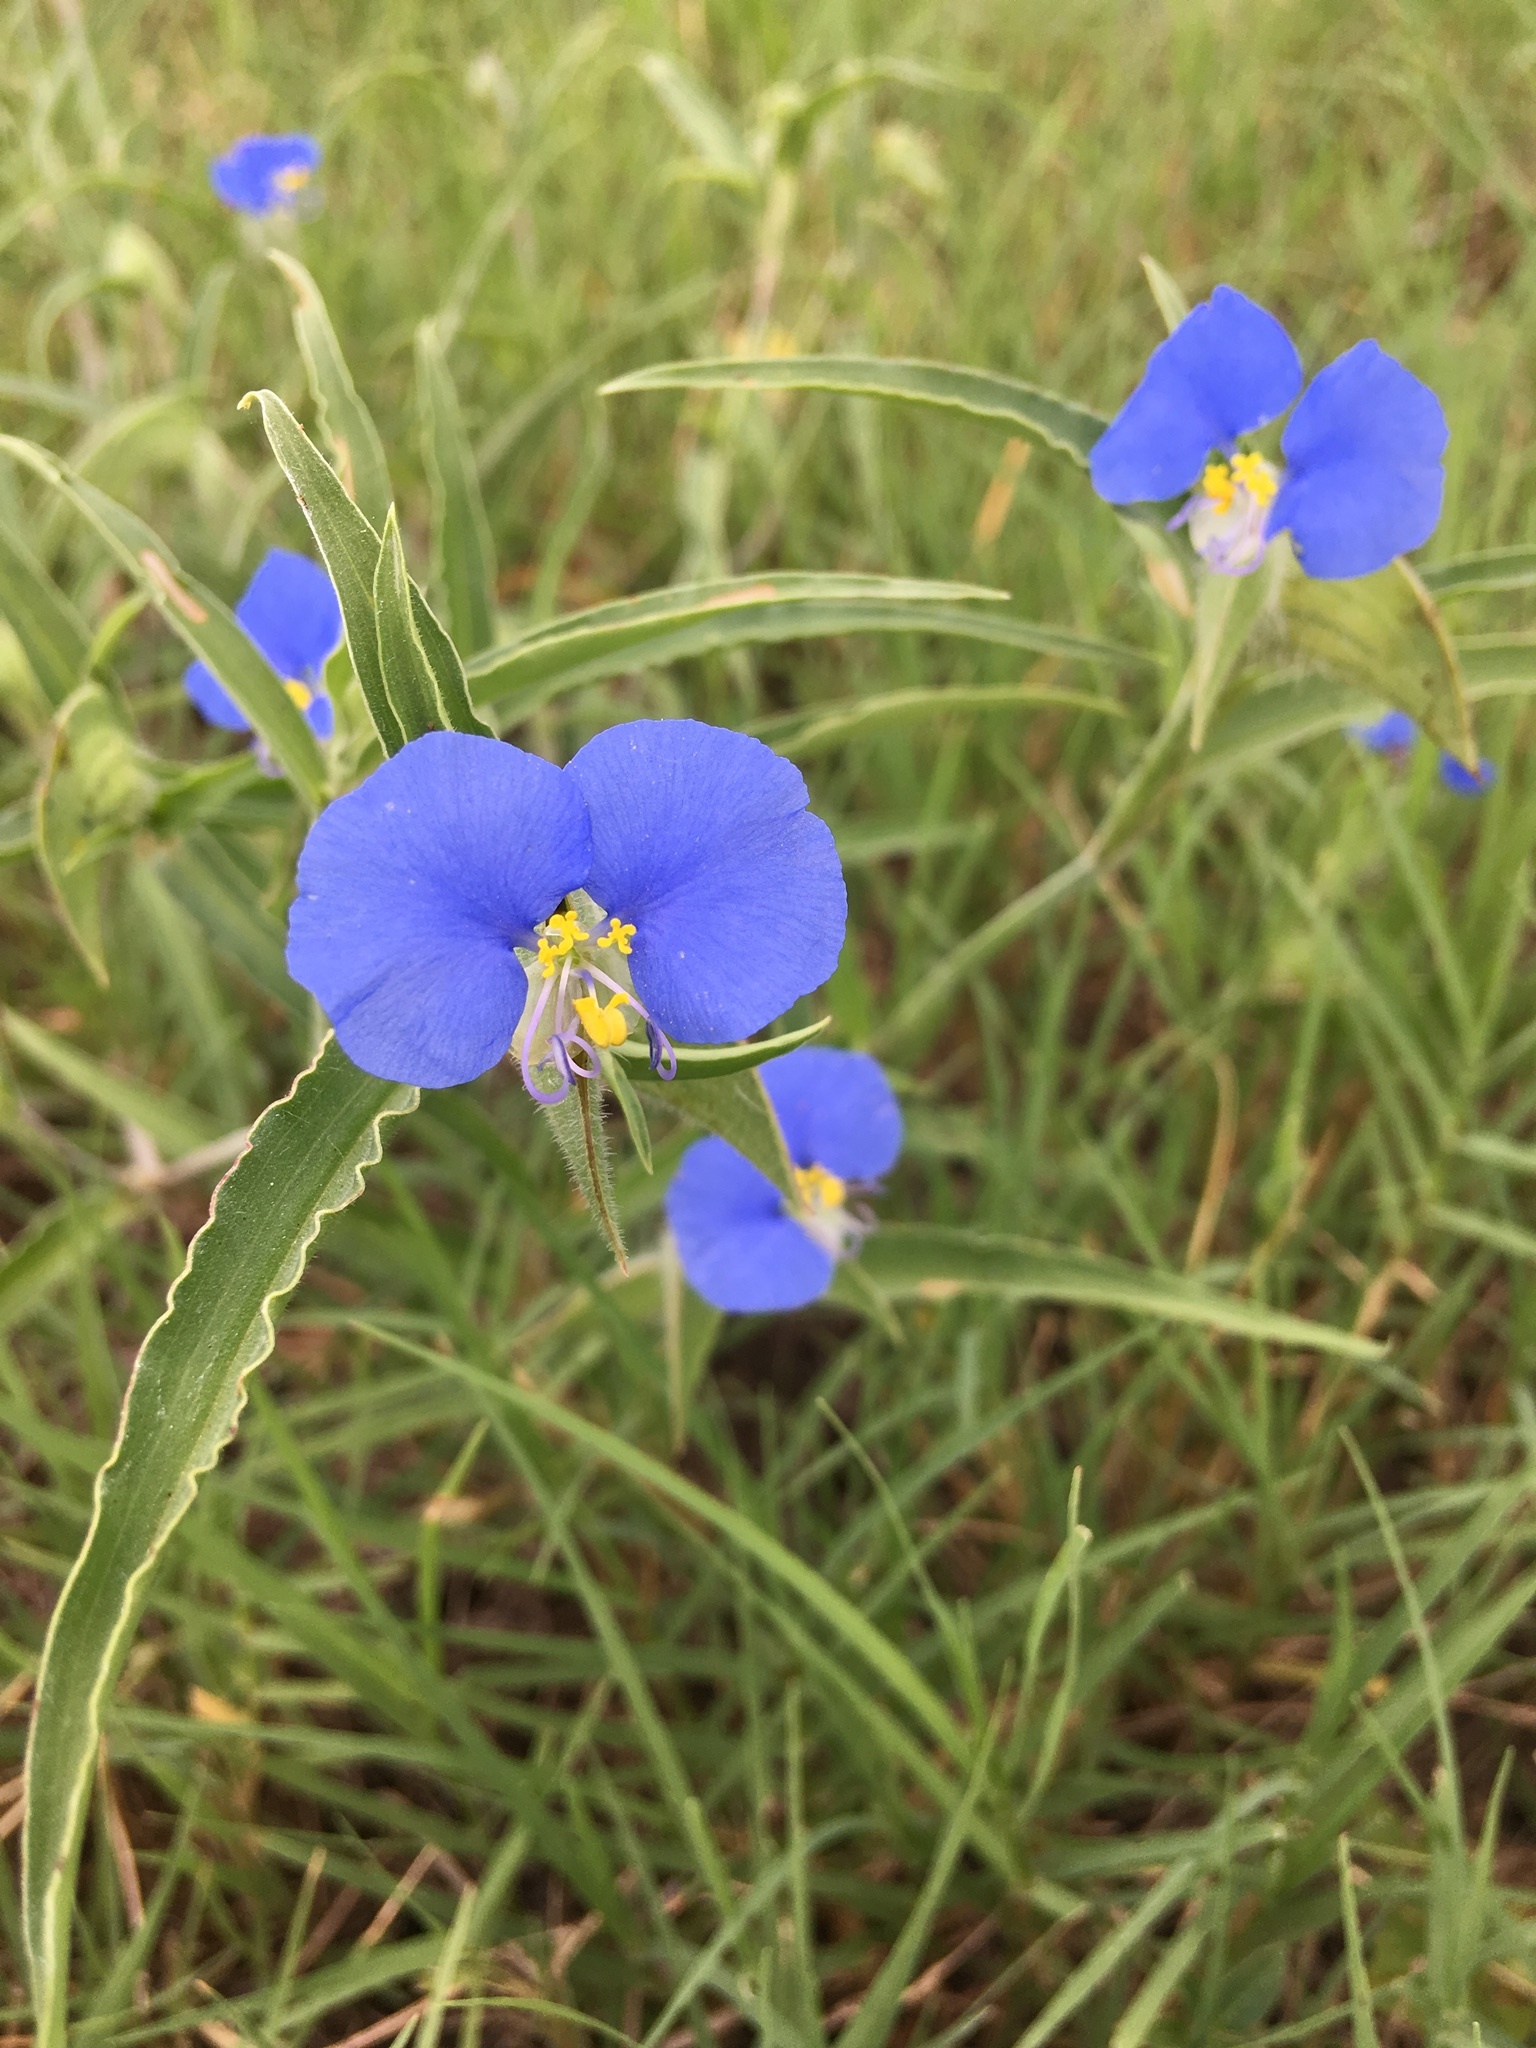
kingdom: Plantae
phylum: Tracheophyta
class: Liliopsida
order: Commelinales
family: Commelinaceae
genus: Commelina
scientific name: Commelina erecta
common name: Blousel blommetjie
